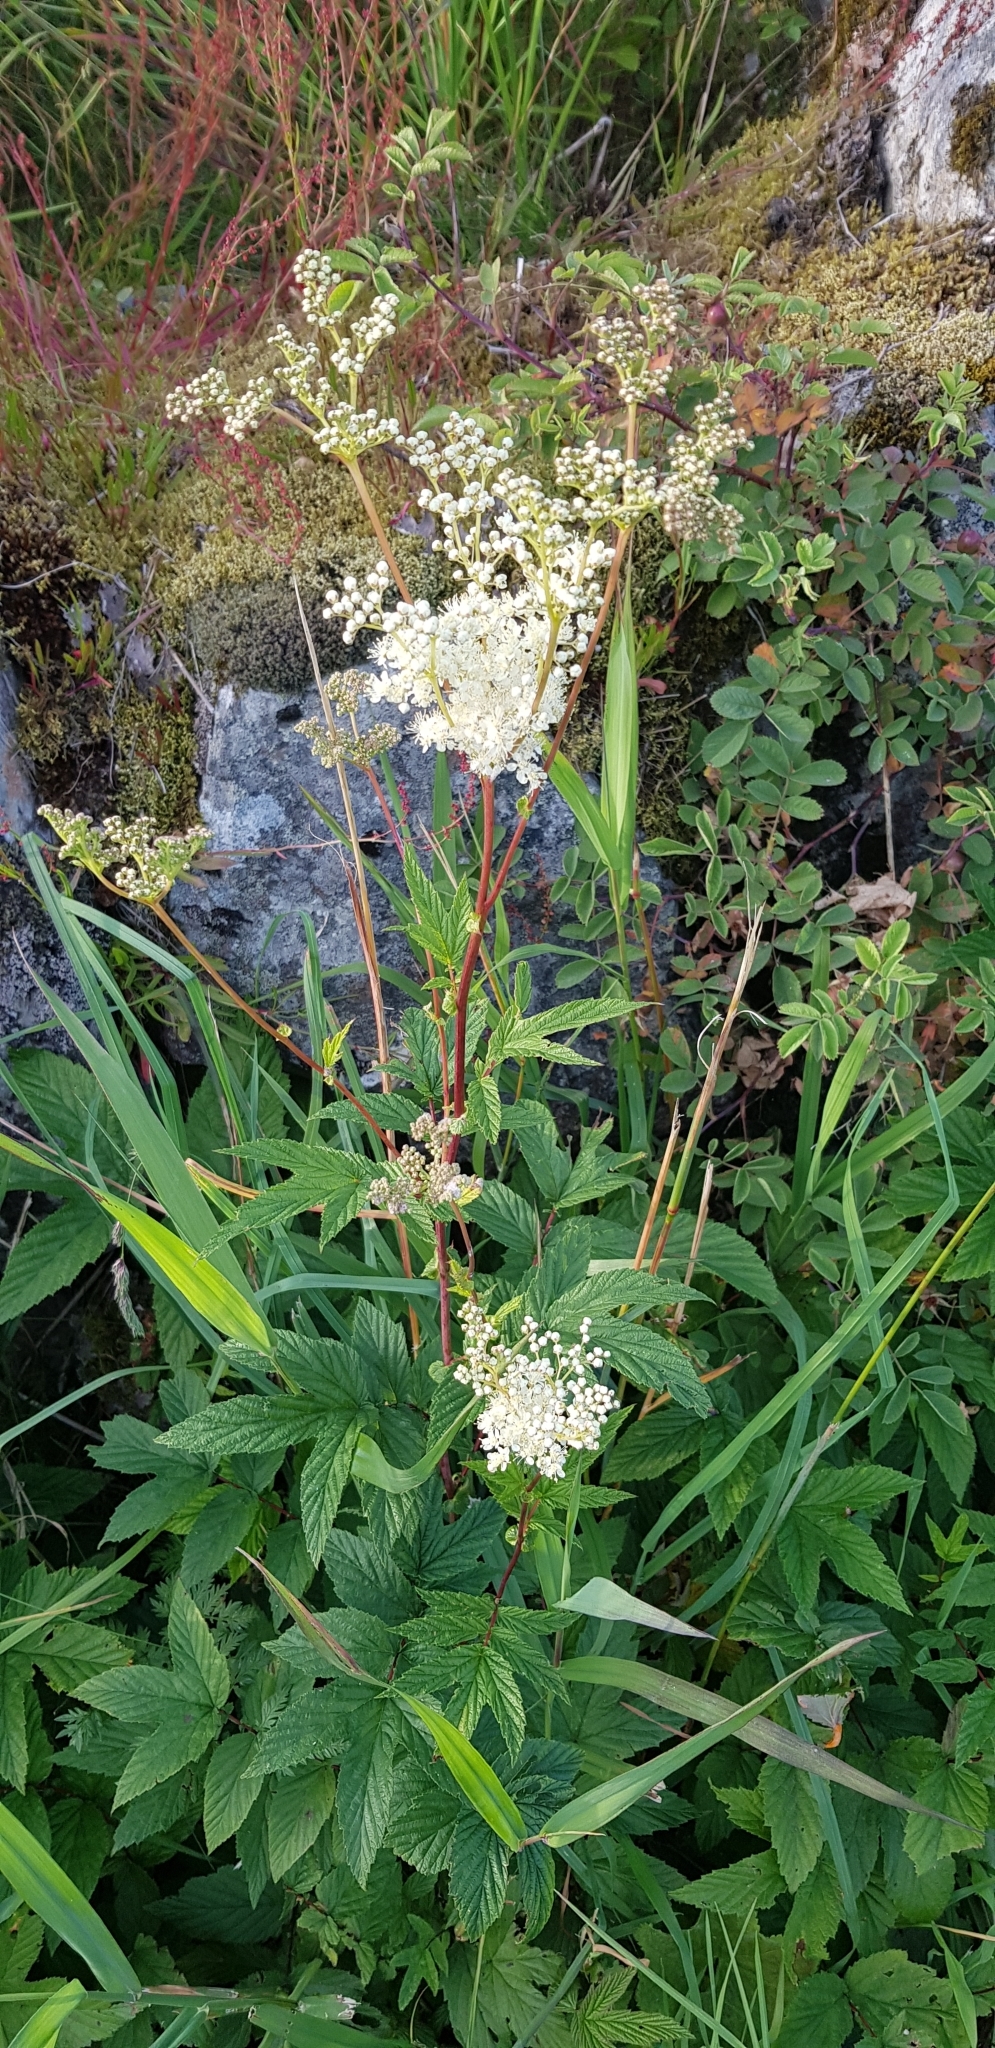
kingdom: Plantae
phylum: Tracheophyta
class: Magnoliopsida
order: Rosales
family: Rosaceae
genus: Filipendula
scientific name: Filipendula ulmaria
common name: Meadowsweet
